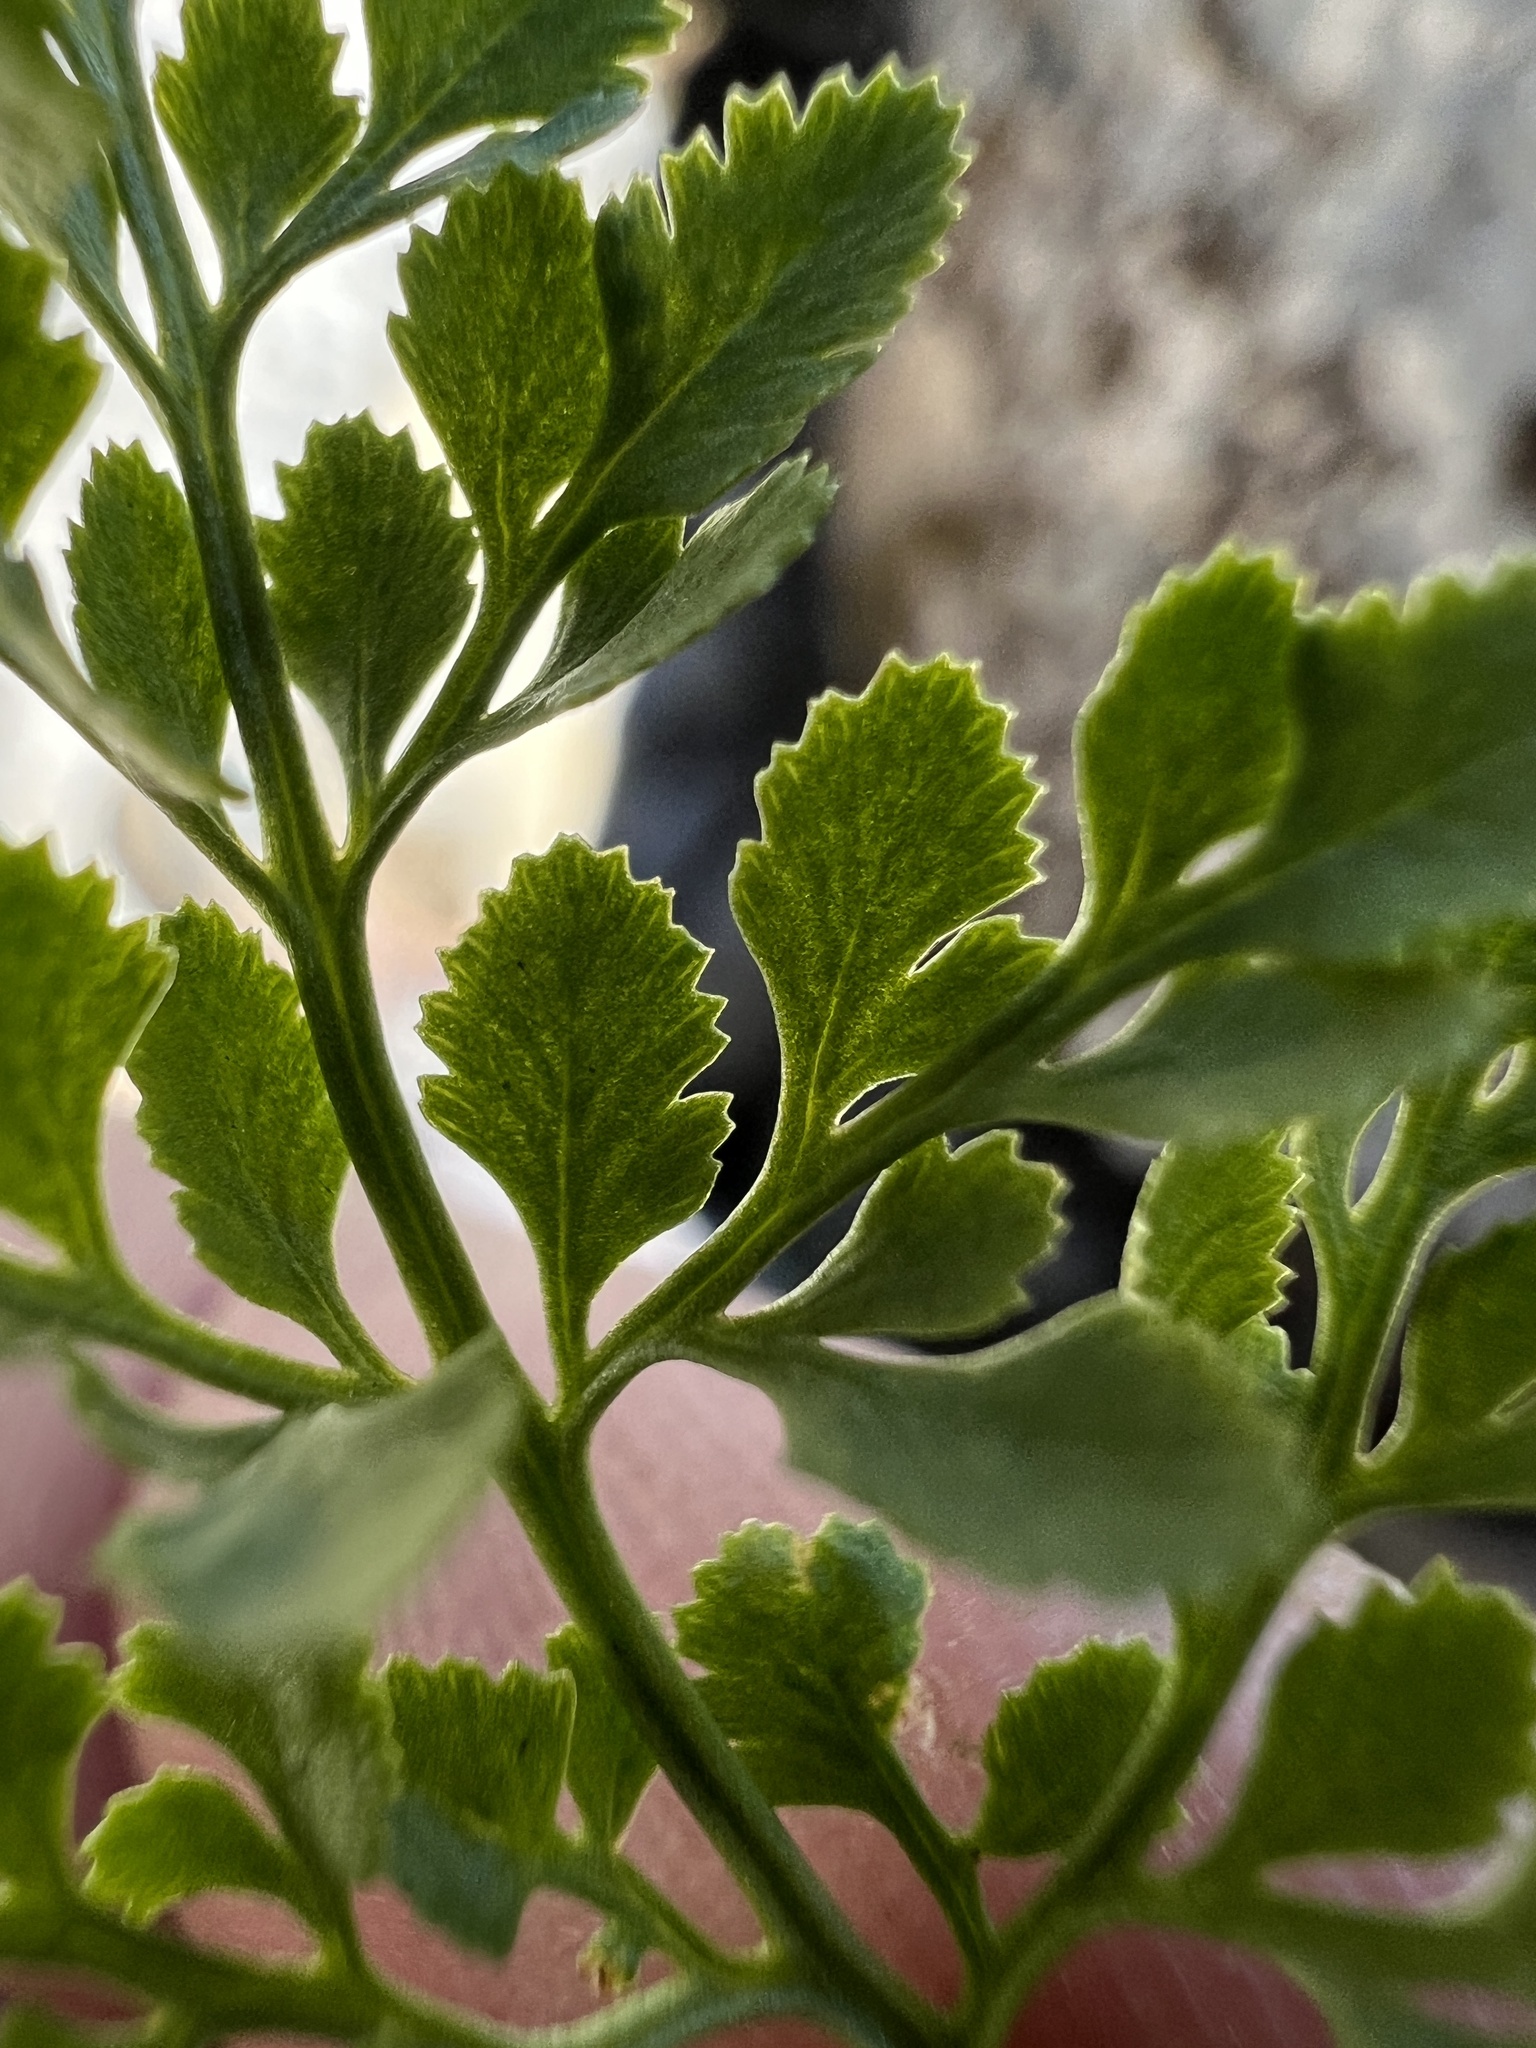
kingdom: Plantae
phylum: Tracheophyta
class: Polypodiopsida
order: Polypodiales
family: Pteridaceae
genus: Cryptogramma
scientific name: Cryptogramma cascadensis
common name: Cascade parsley fern
